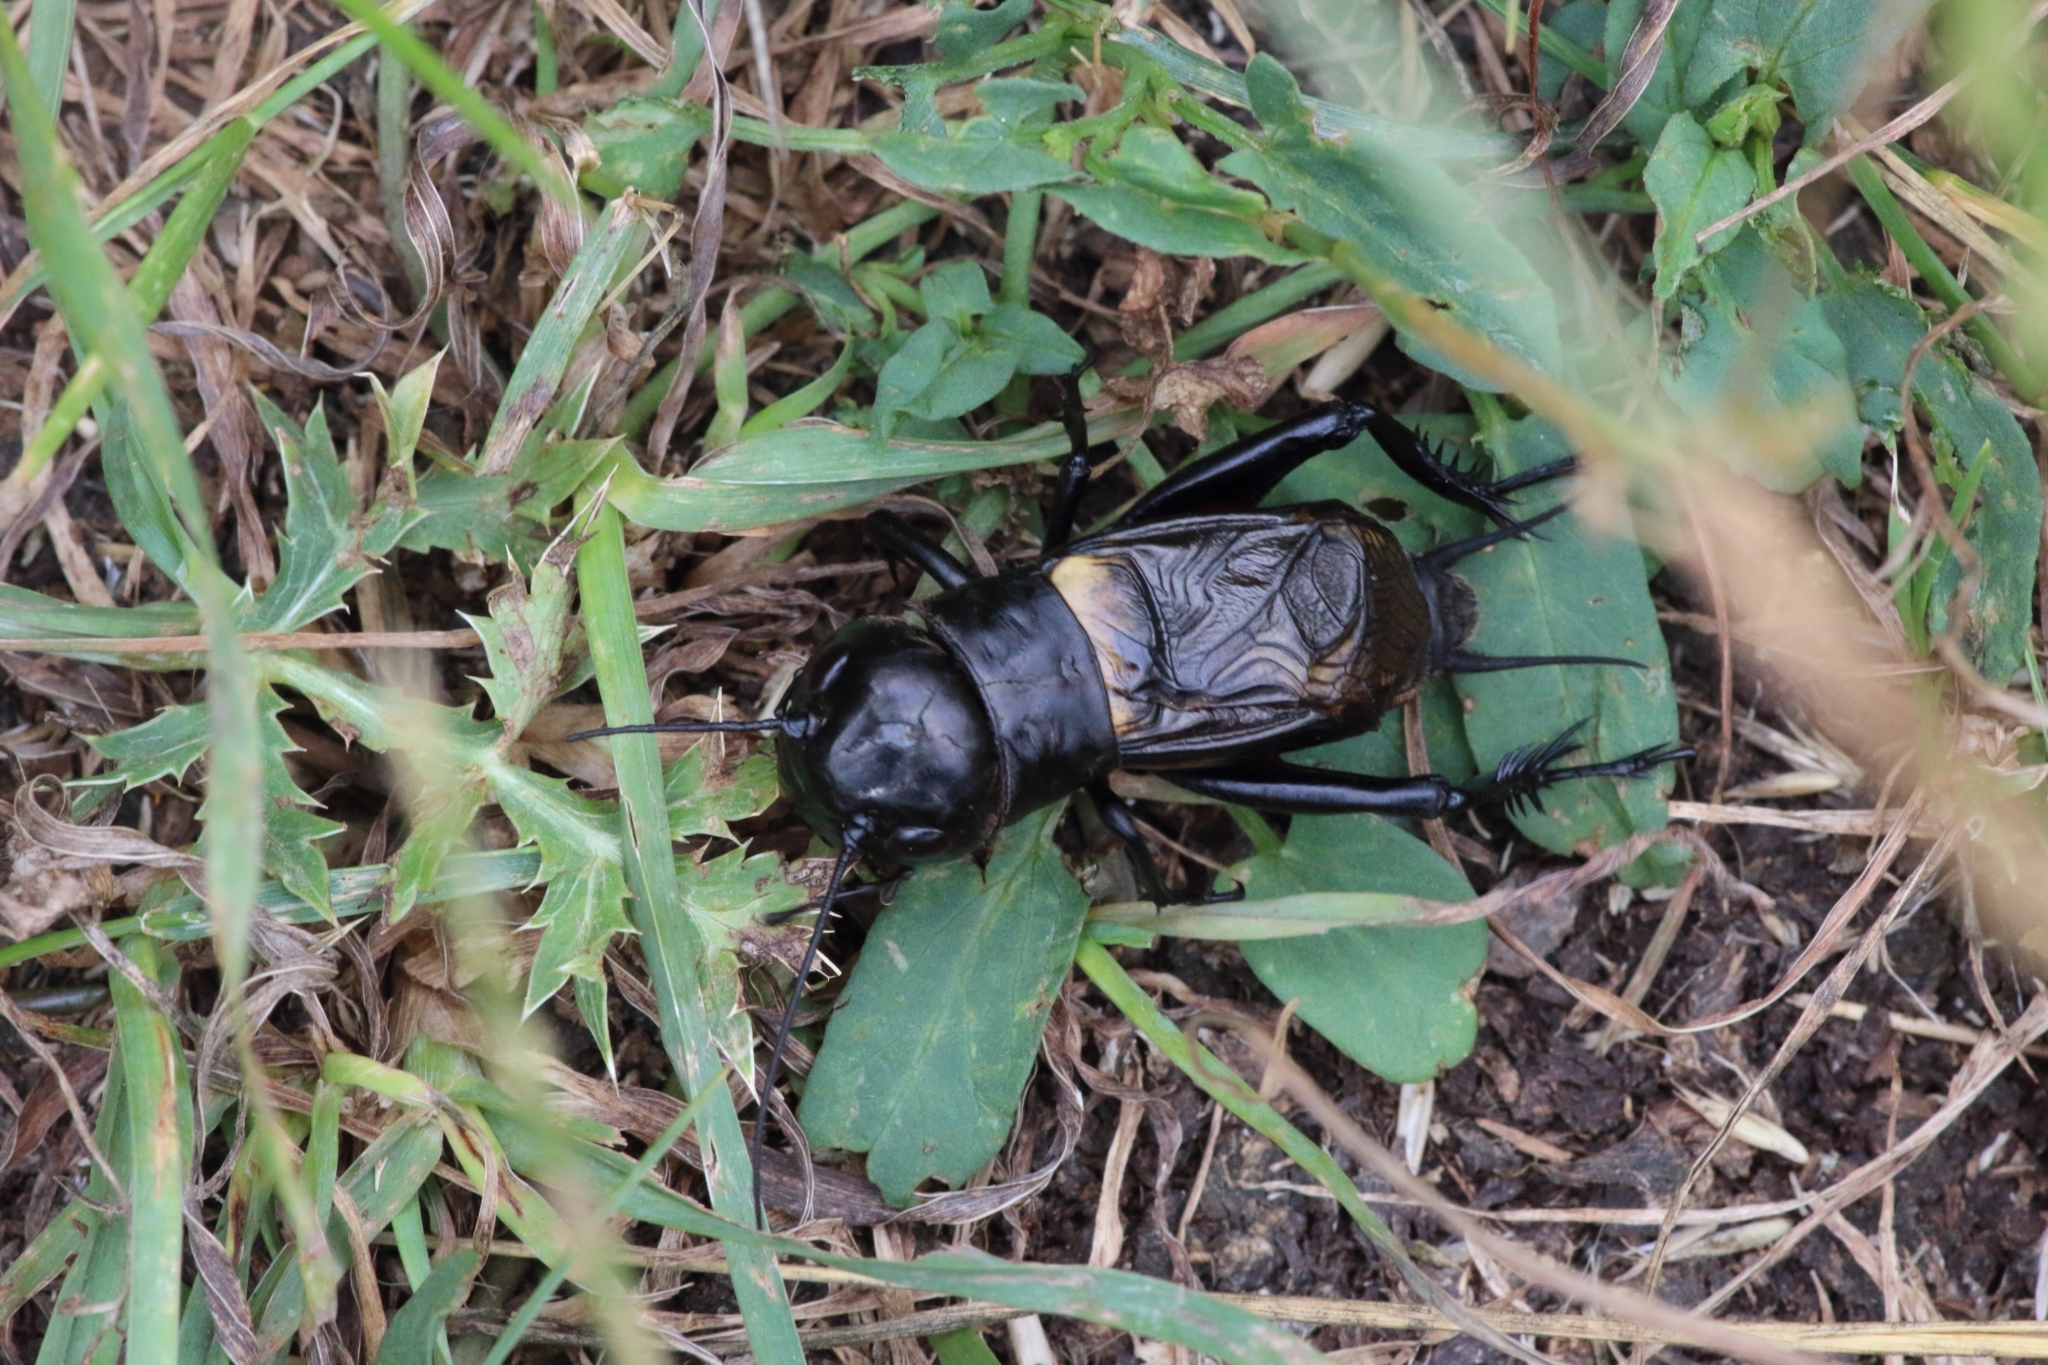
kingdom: Animalia
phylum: Arthropoda
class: Insecta
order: Orthoptera
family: Gryllidae
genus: Gryllus
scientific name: Gryllus campestris
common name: Field cricket
